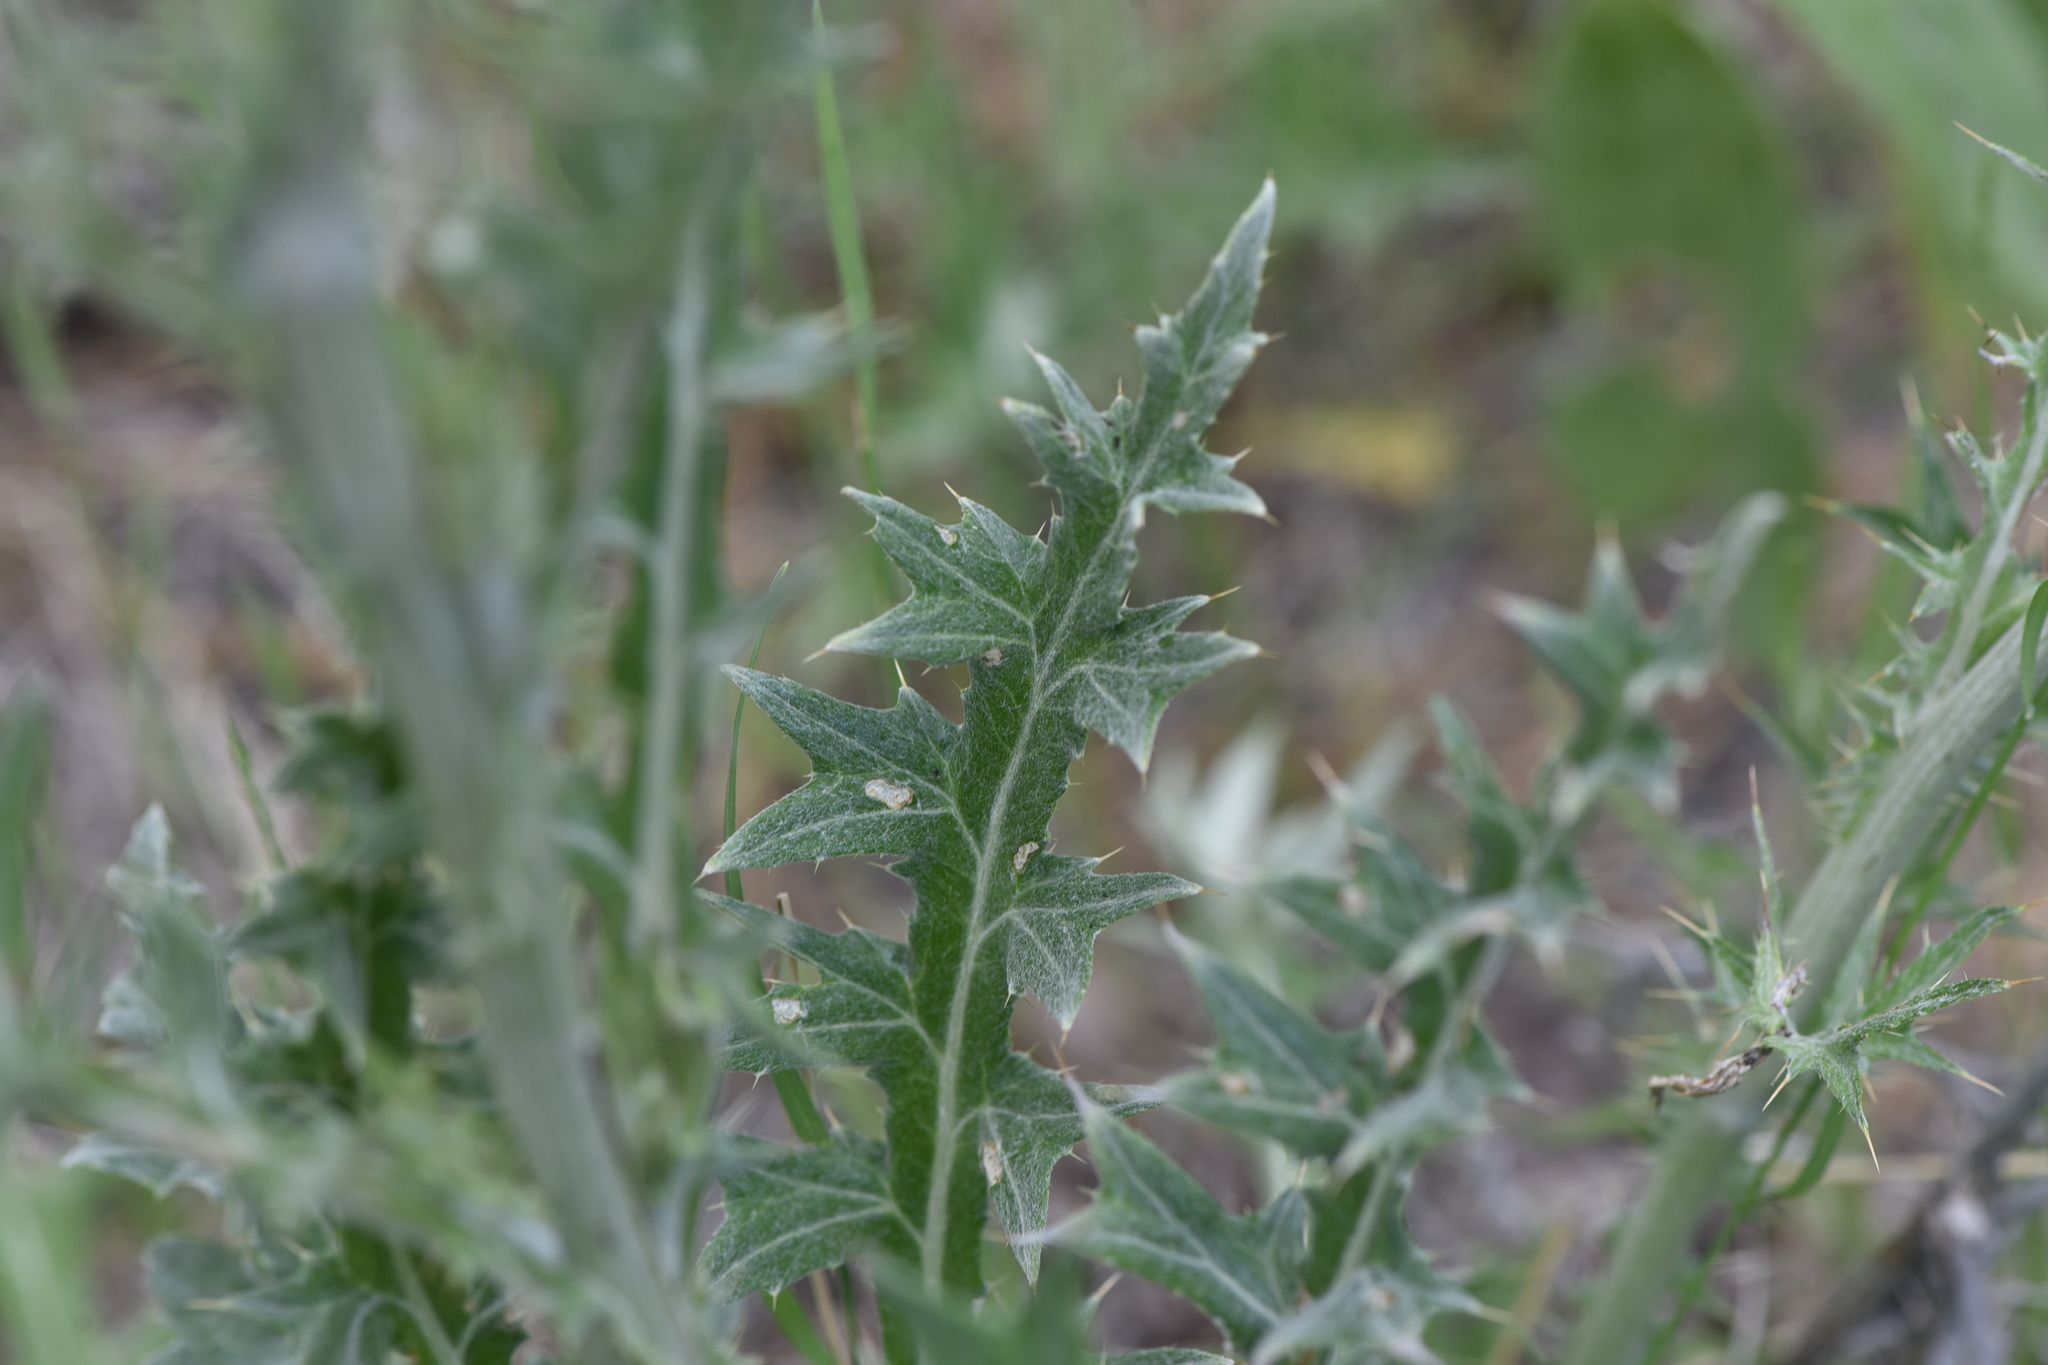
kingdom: Plantae
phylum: Tracheophyta
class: Magnoliopsida
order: Asterales
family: Asteraceae
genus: Cirsium
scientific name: Cirsium undulatum
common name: Pasture thistle
